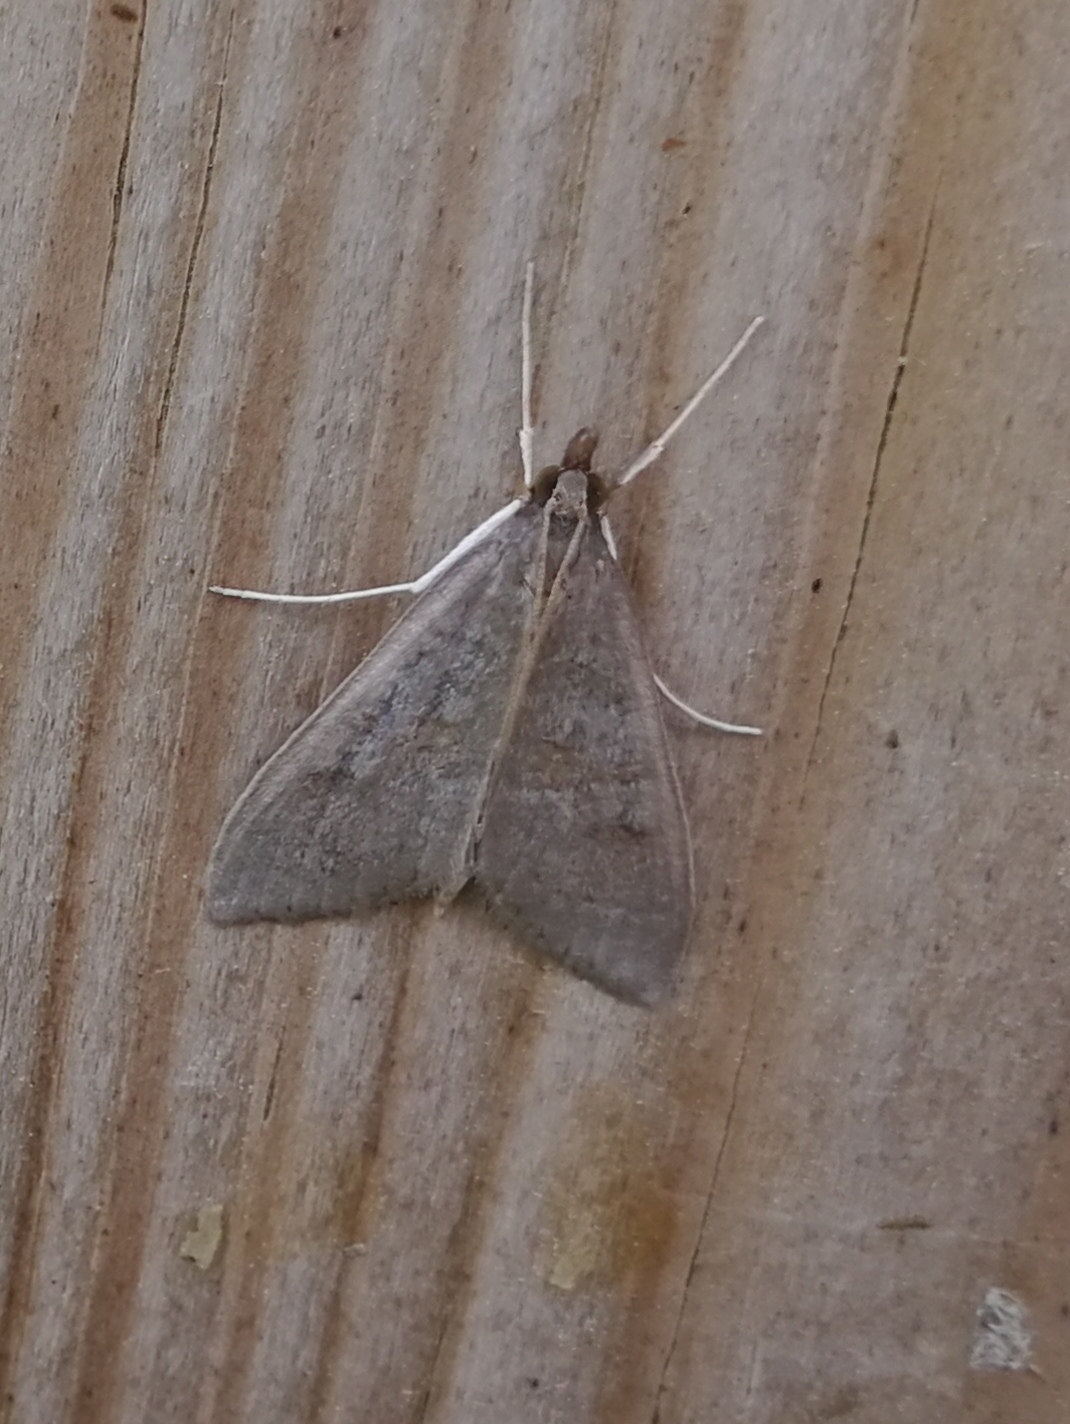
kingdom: Animalia
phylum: Arthropoda
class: Insecta
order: Lepidoptera
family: Crambidae
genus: Mecyna
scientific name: Mecyna asinalis
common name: Coastal pearl
